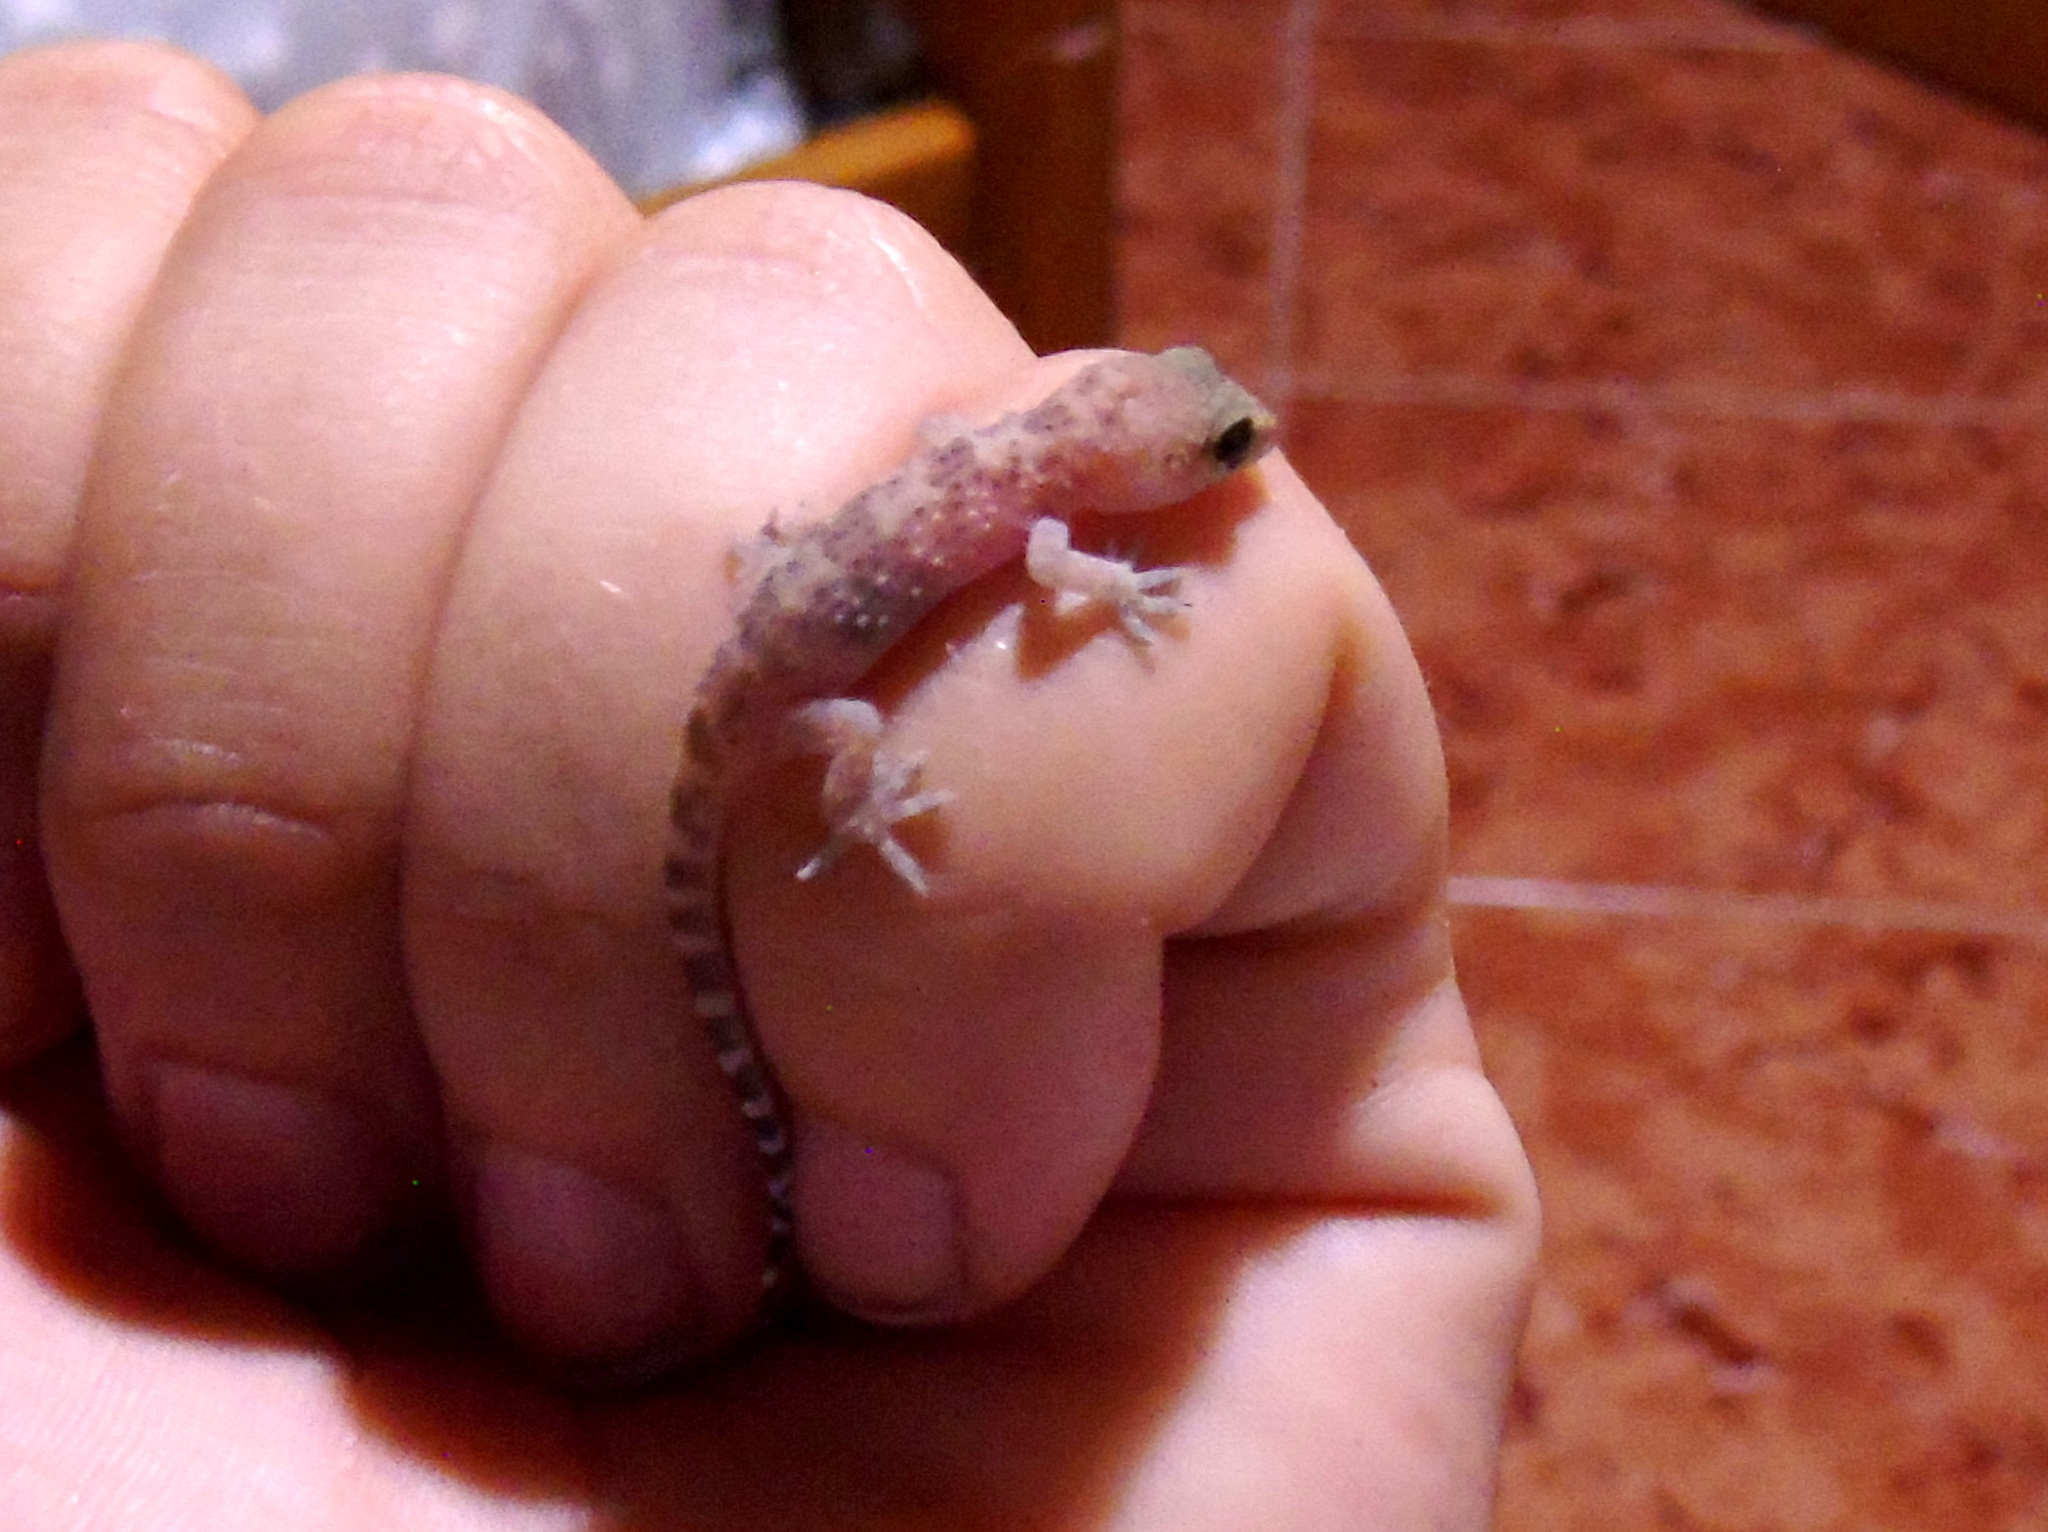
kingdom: Animalia
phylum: Chordata
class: Squamata
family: Gekkonidae
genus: Hemidactylus
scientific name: Hemidactylus turcicus
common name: Turkish gecko
